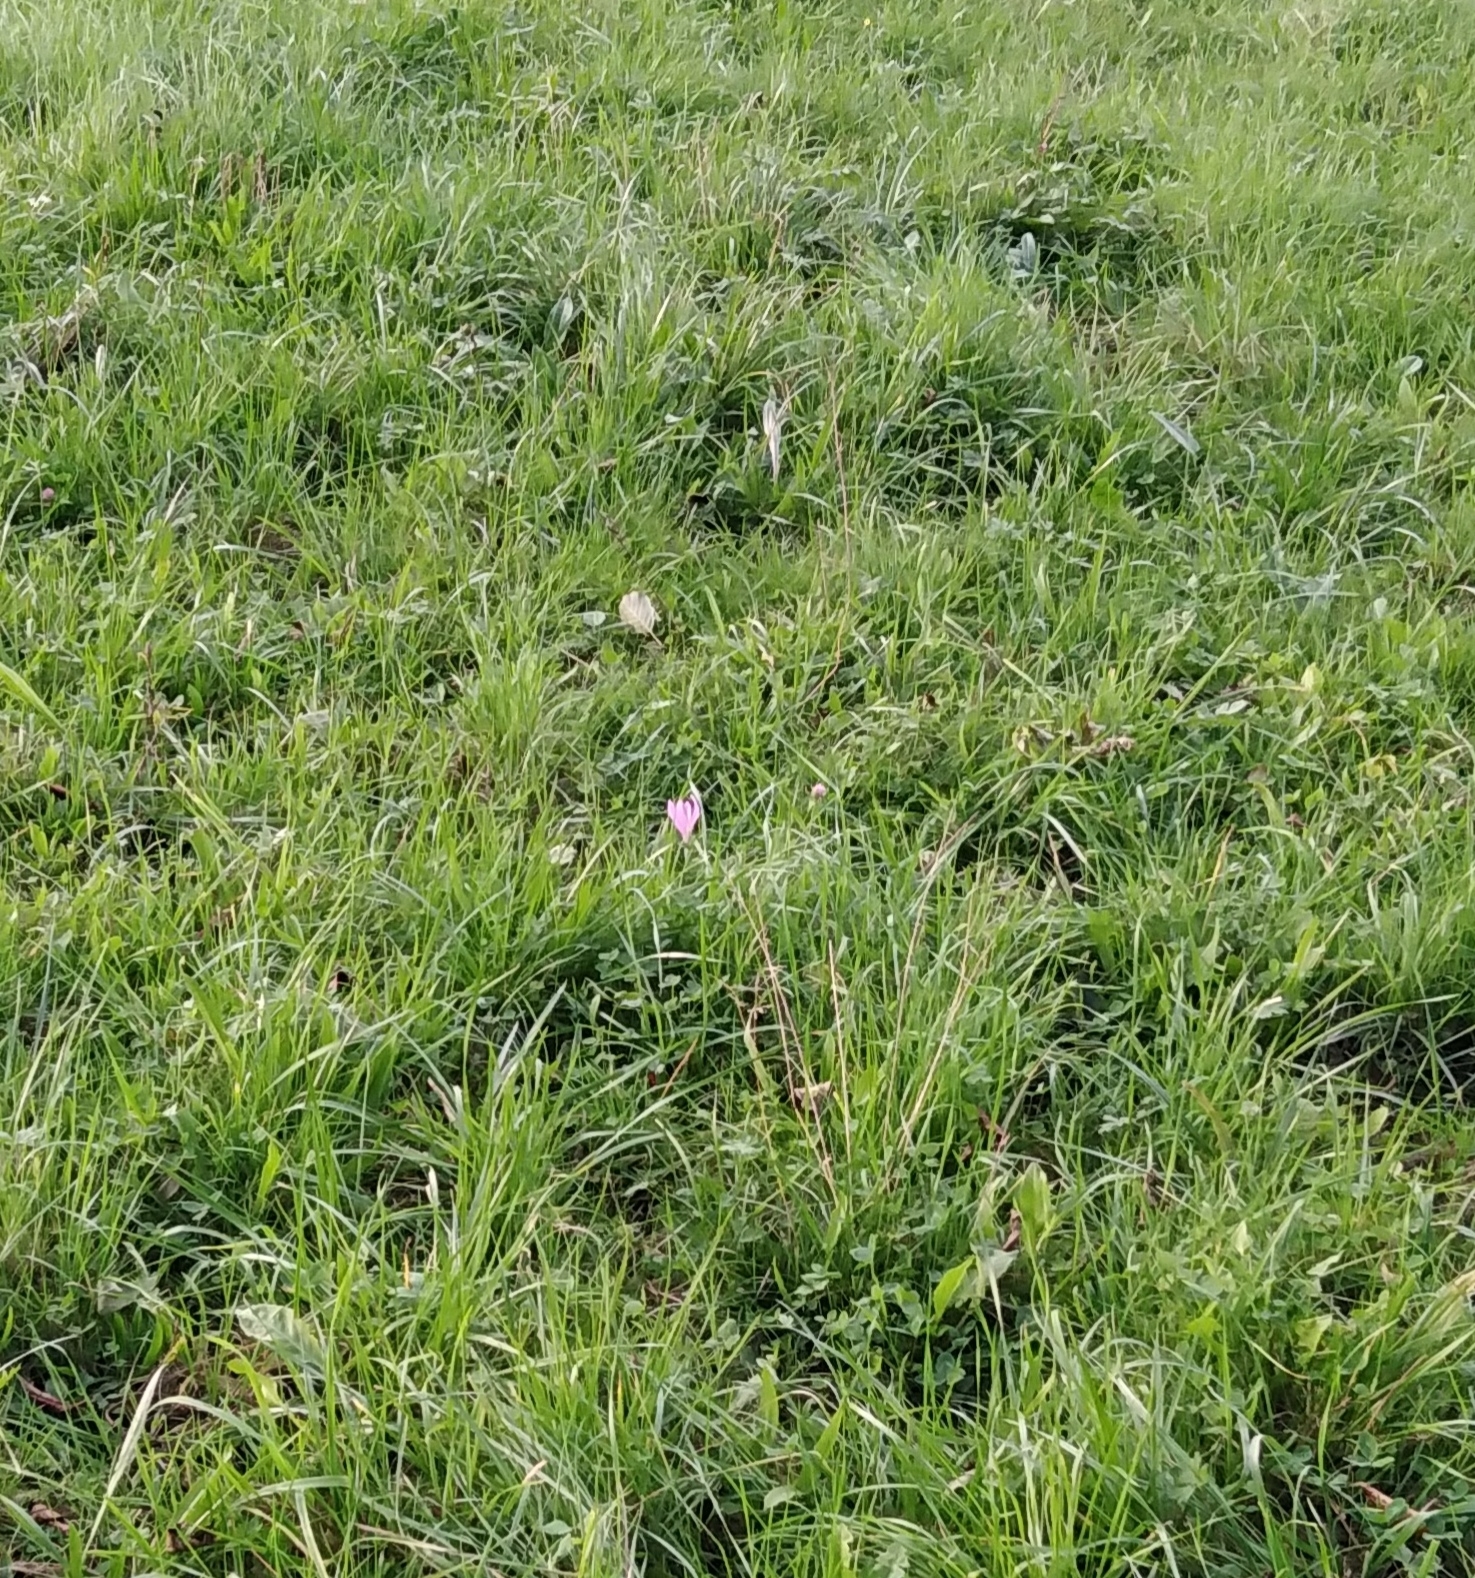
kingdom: Plantae
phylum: Tracheophyta
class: Liliopsida
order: Liliales
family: Colchicaceae
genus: Colchicum
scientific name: Colchicum autumnale
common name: Autumn crocus
